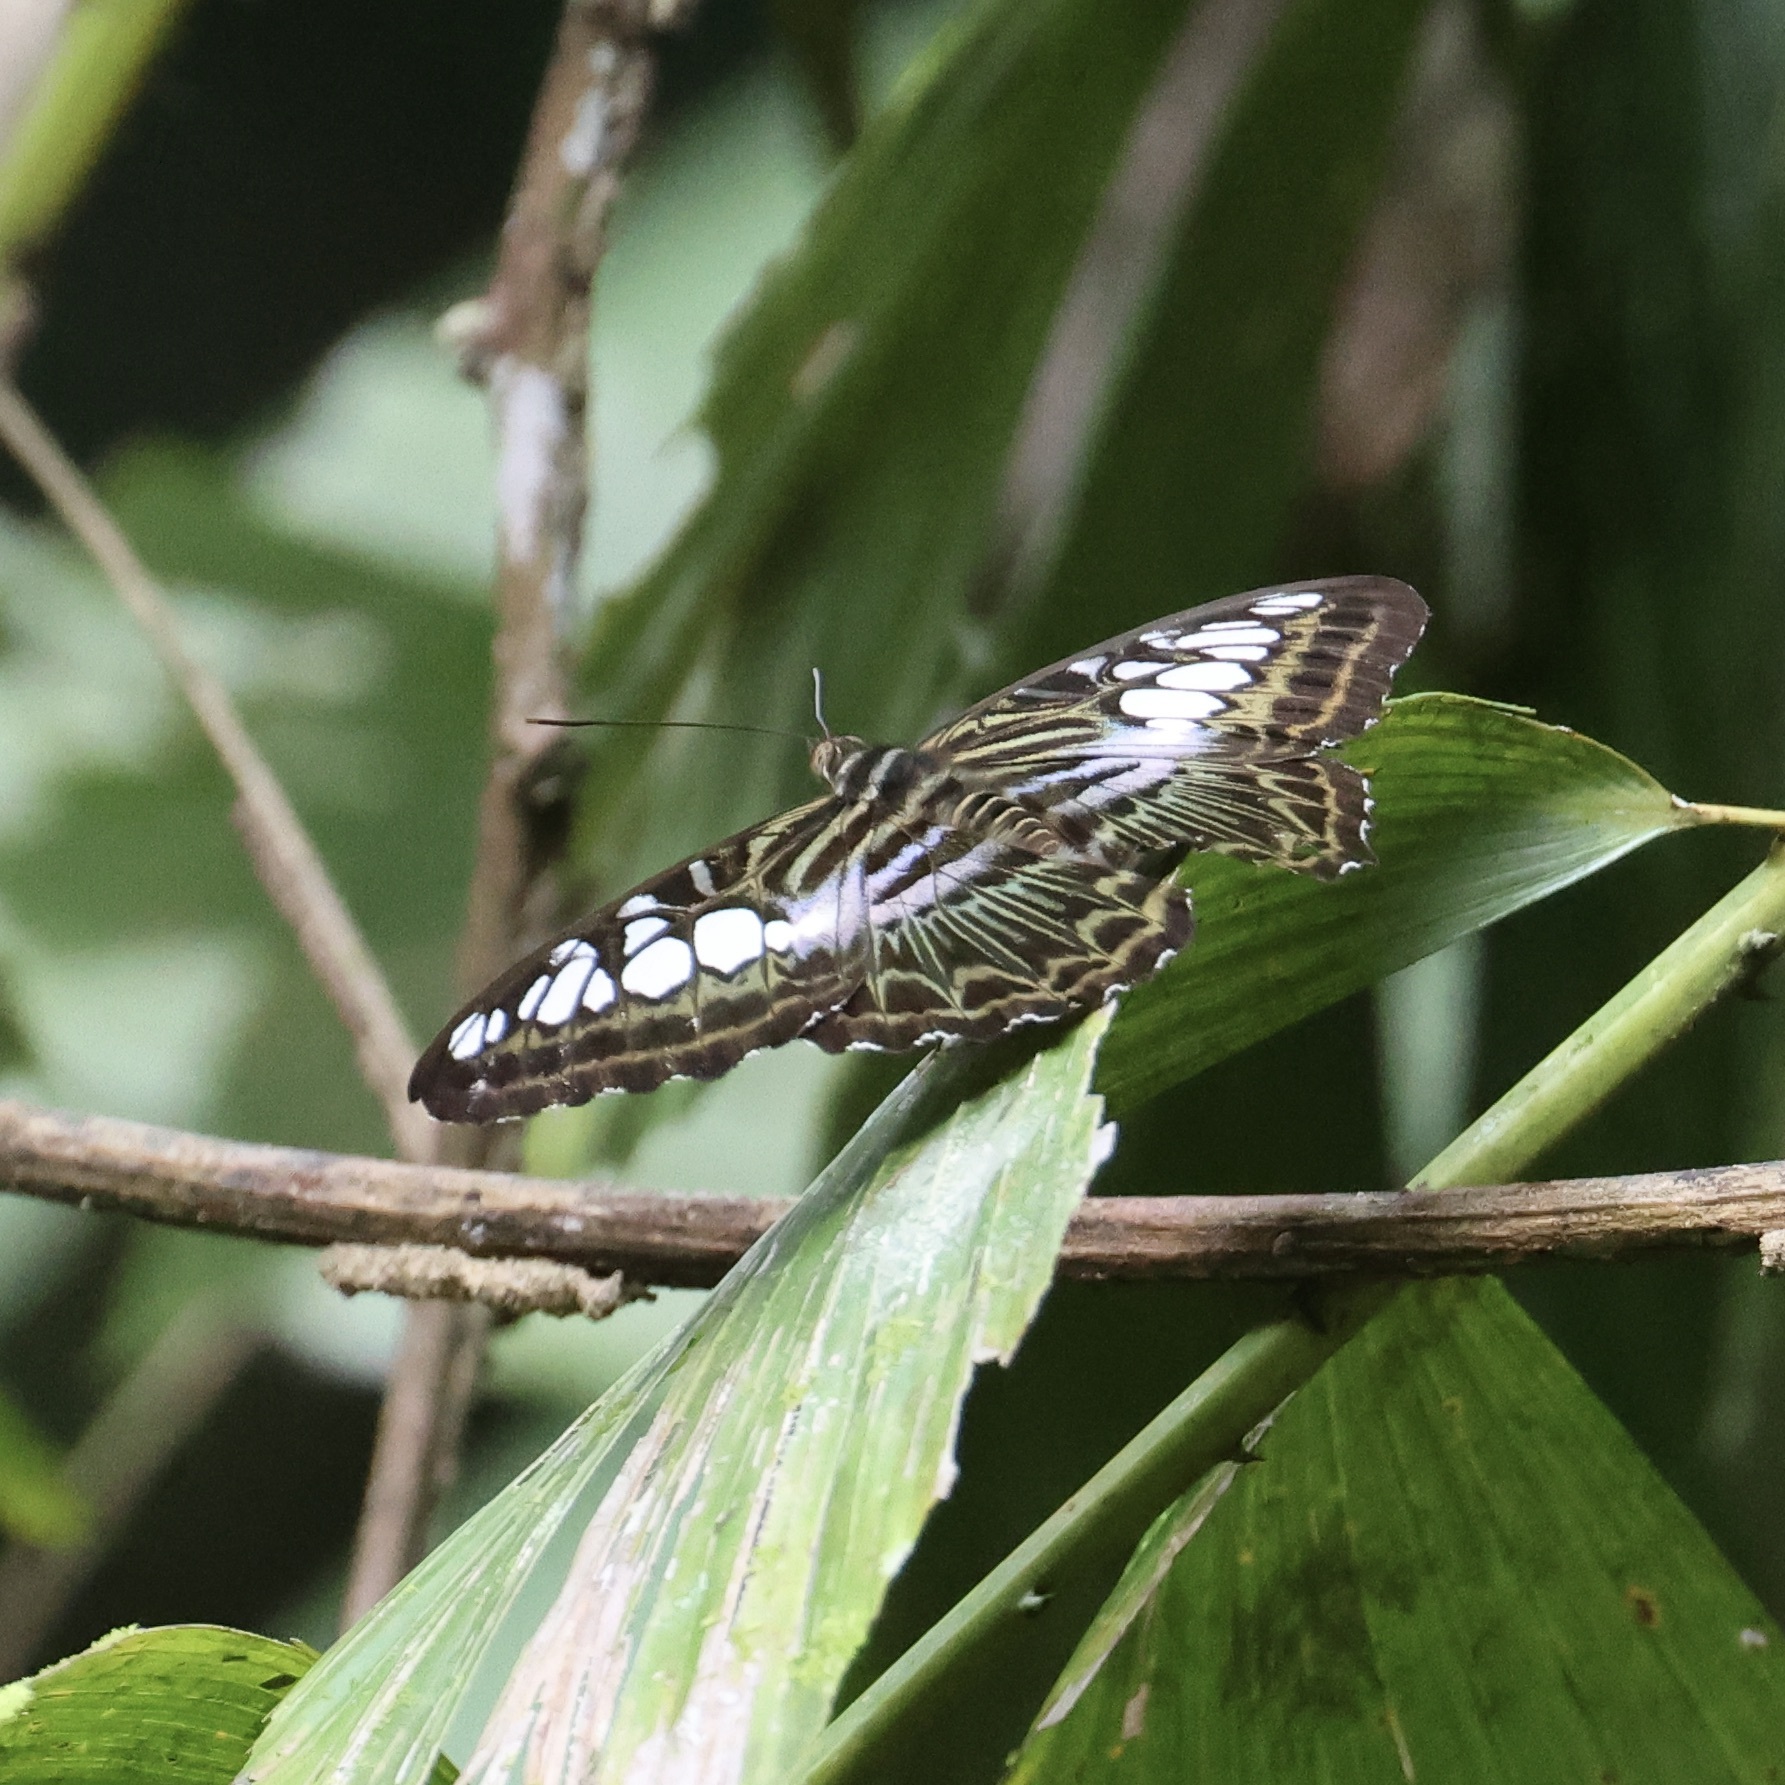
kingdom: Animalia
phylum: Arthropoda
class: Insecta
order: Lepidoptera
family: Nymphalidae
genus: Kallima
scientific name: Kallima sylvia
